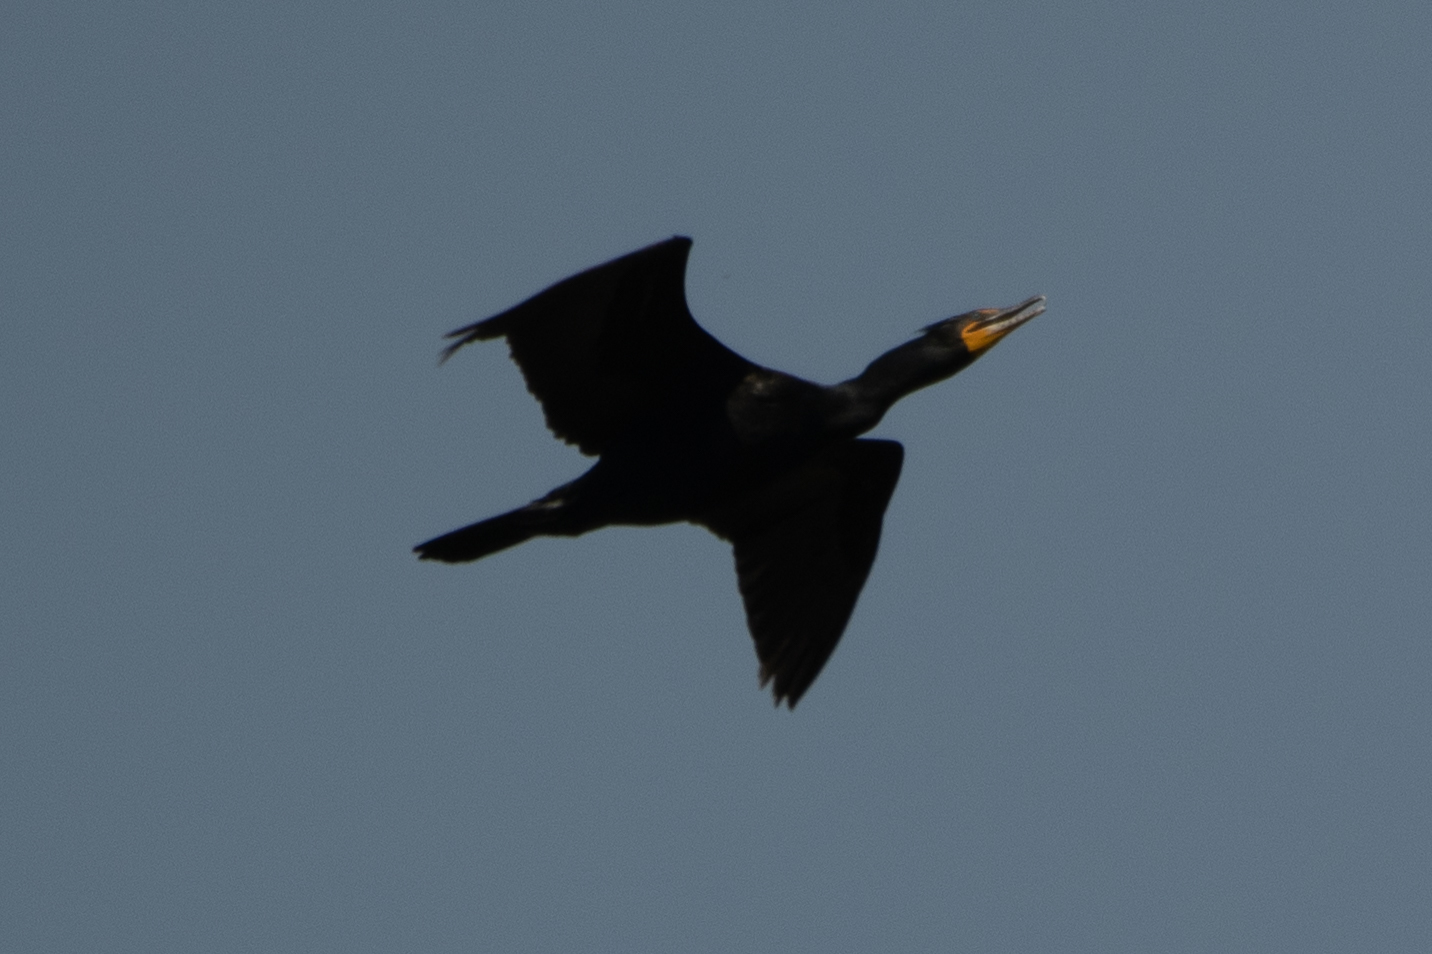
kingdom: Animalia
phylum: Chordata
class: Aves
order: Suliformes
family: Phalacrocoracidae
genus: Phalacrocorax
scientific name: Phalacrocorax auritus
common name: Double-crested cormorant
